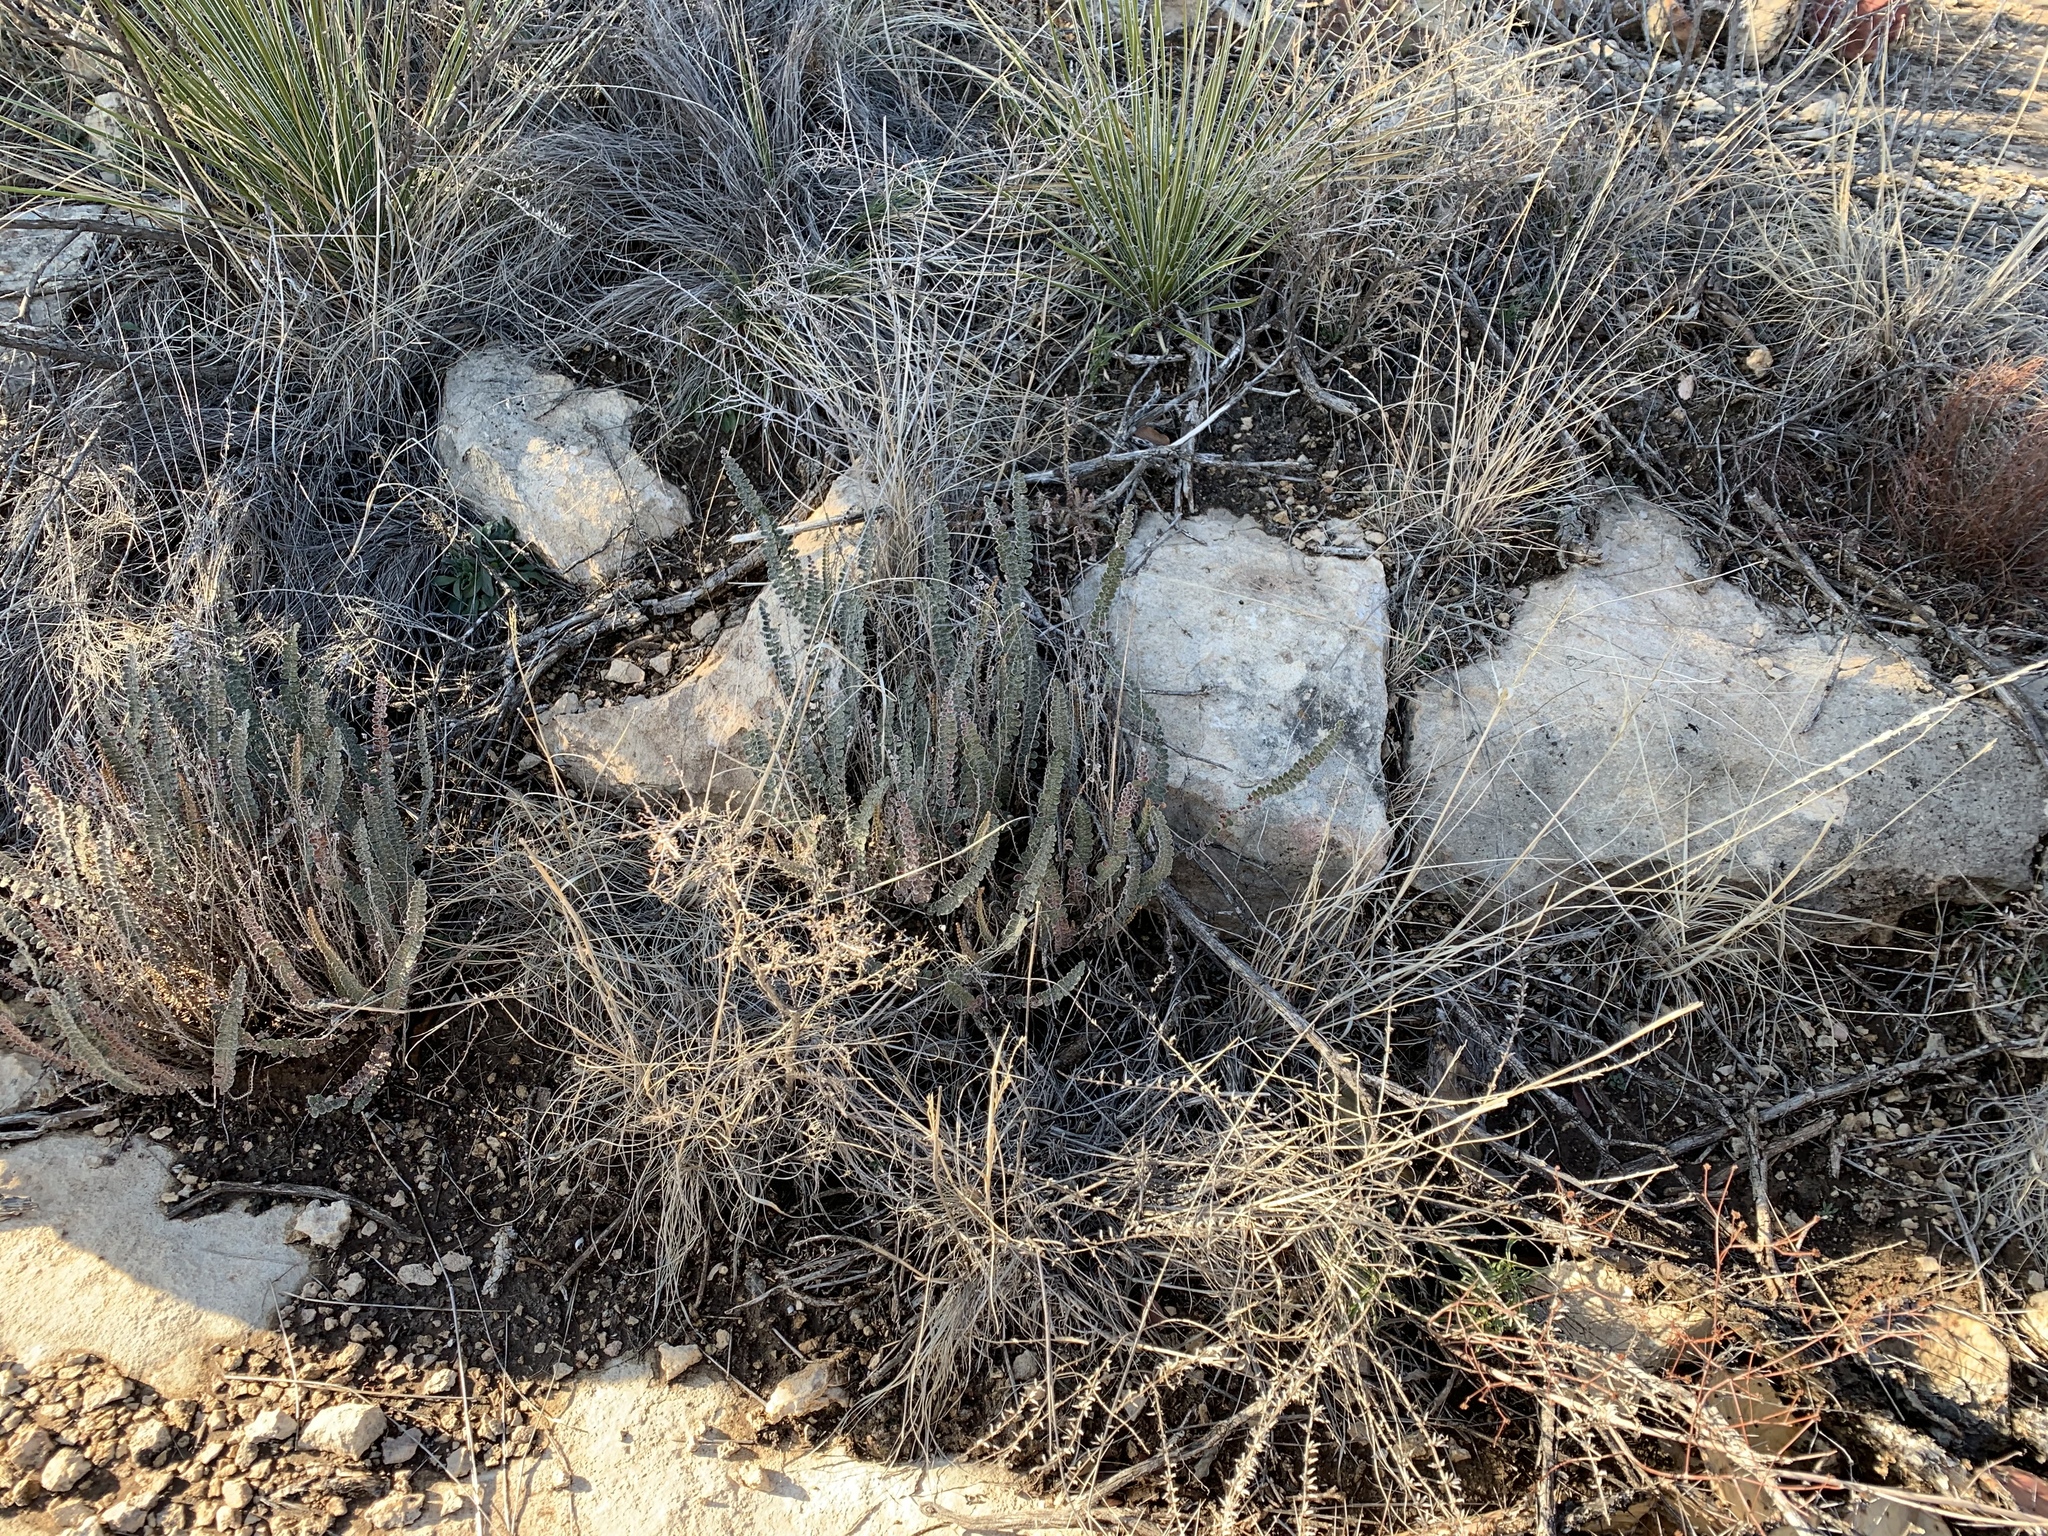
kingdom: Plantae
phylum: Tracheophyta
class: Polypodiopsida
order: Polypodiales
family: Pteridaceae
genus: Astrolepis
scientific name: Astrolepis cochisensis
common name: Scaly cloak fern
